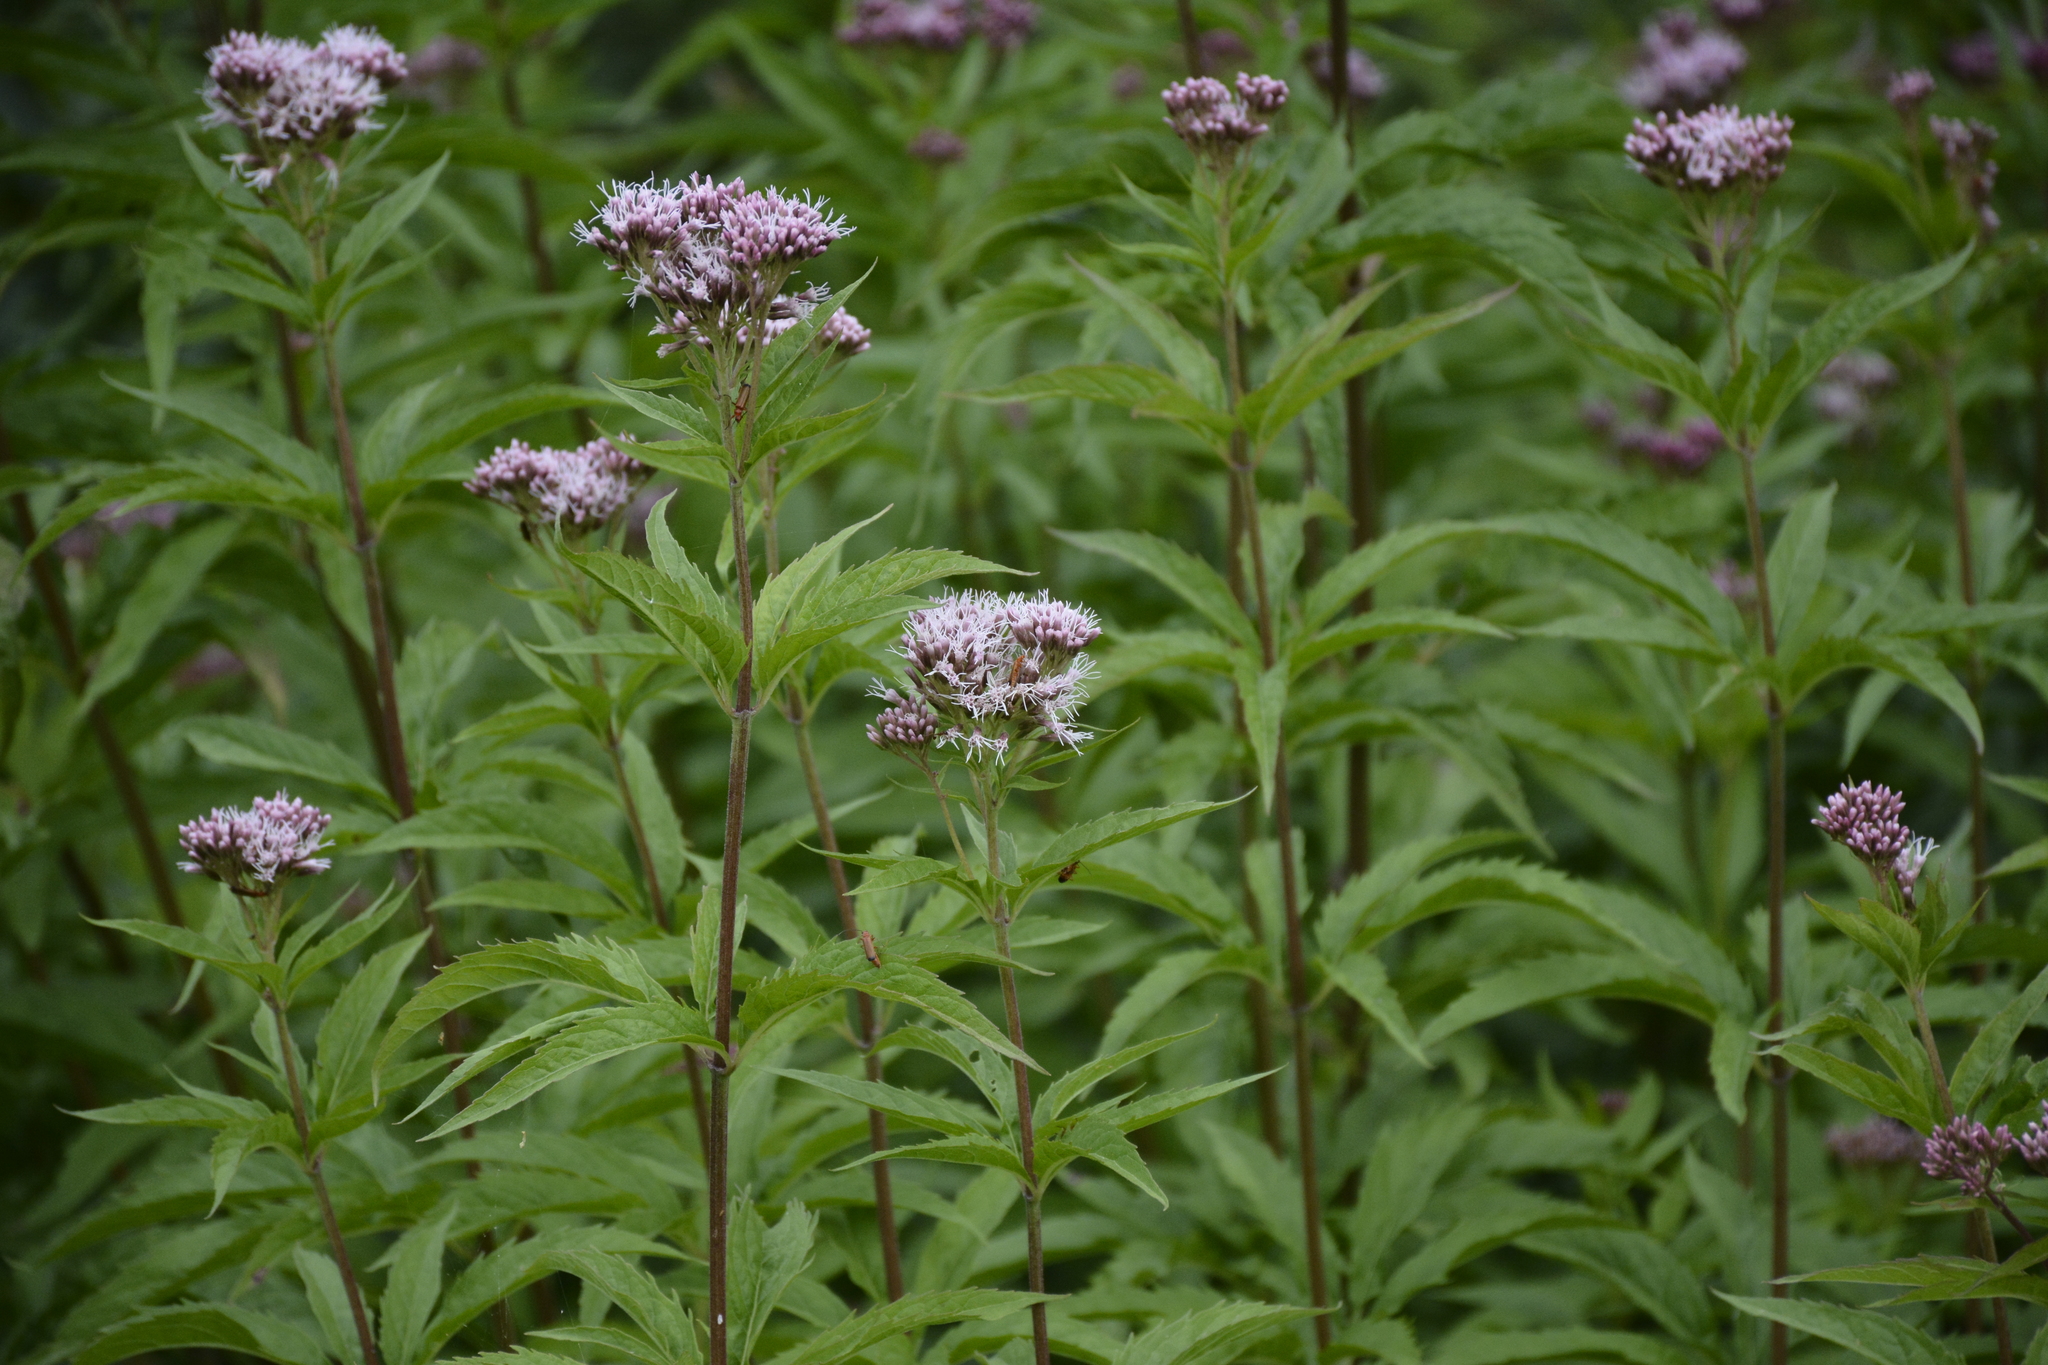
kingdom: Plantae
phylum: Tracheophyta
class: Magnoliopsida
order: Asterales
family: Asteraceae
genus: Eupatorium
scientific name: Eupatorium cannabinum
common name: Hemp-agrimony
